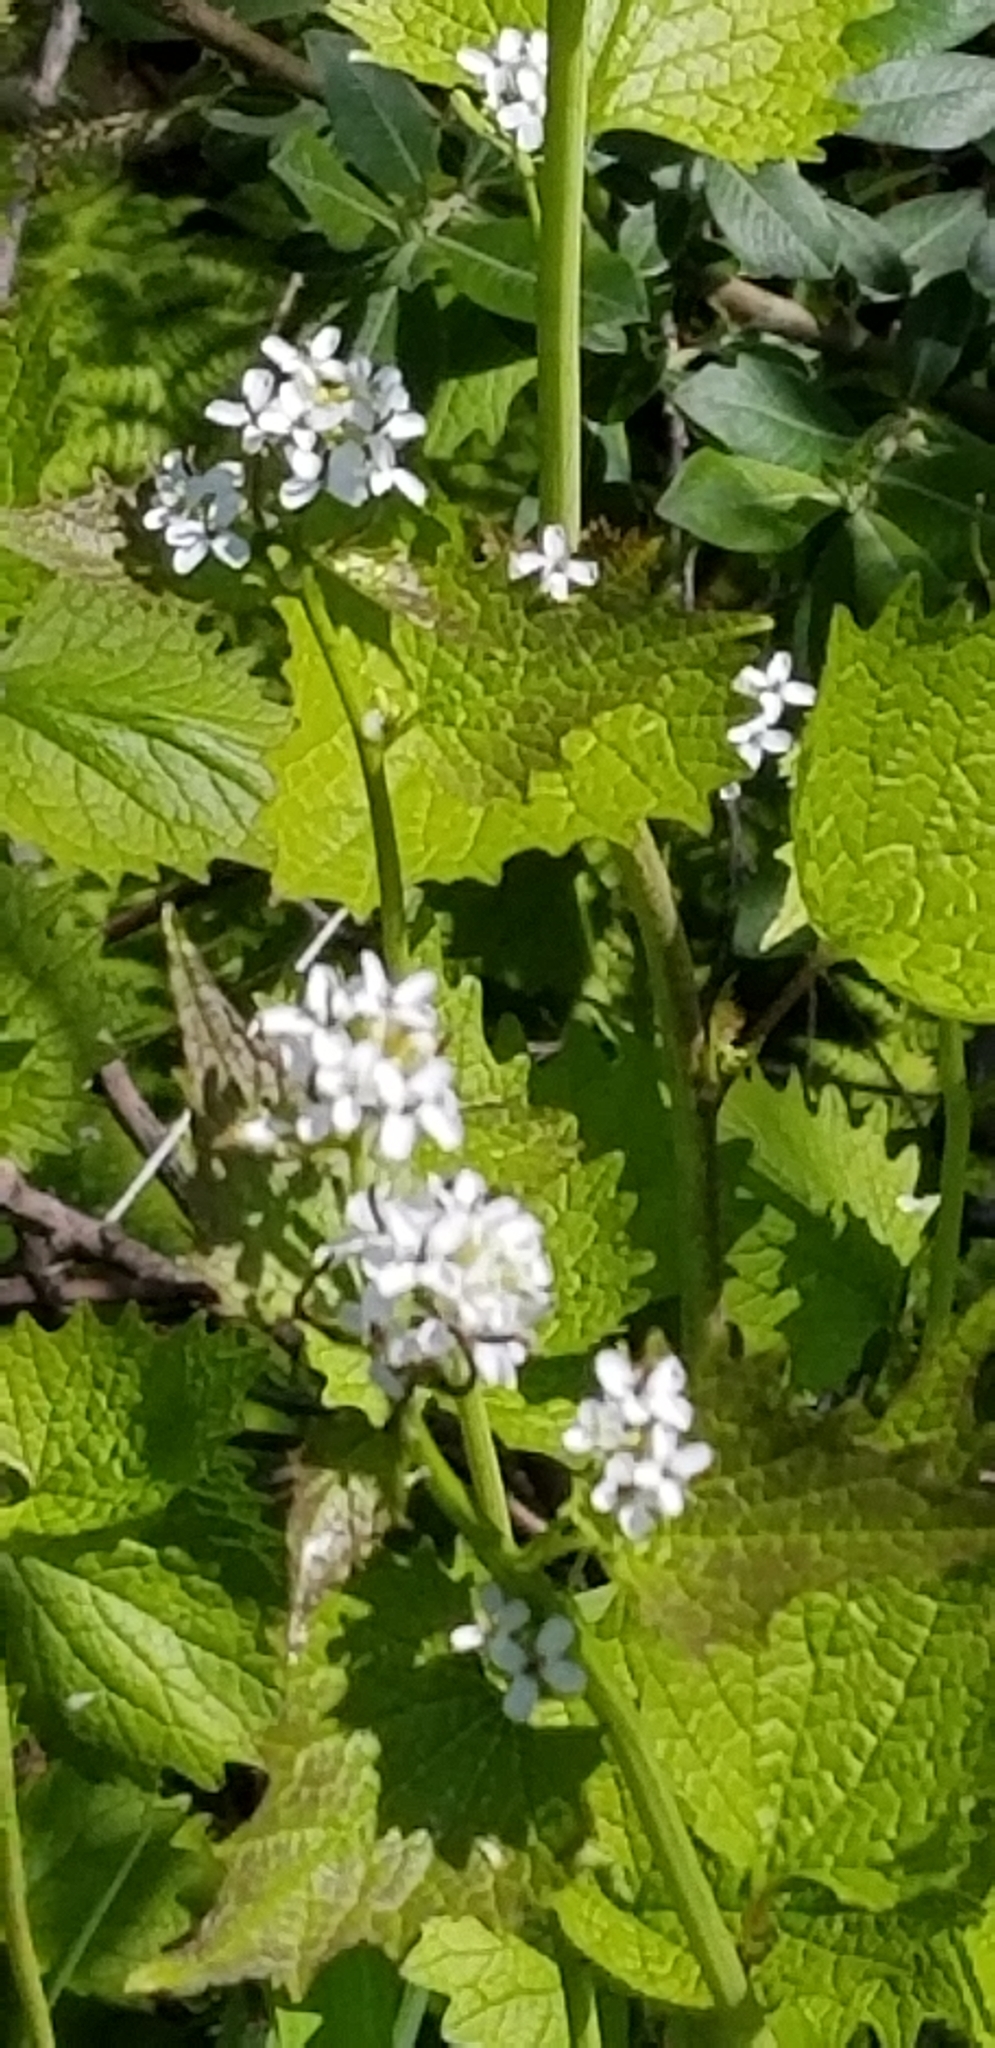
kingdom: Plantae
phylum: Tracheophyta
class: Magnoliopsida
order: Brassicales
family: Brassicaceae
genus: Alliaria
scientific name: Alliaria petiolata
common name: Garlic mustard
